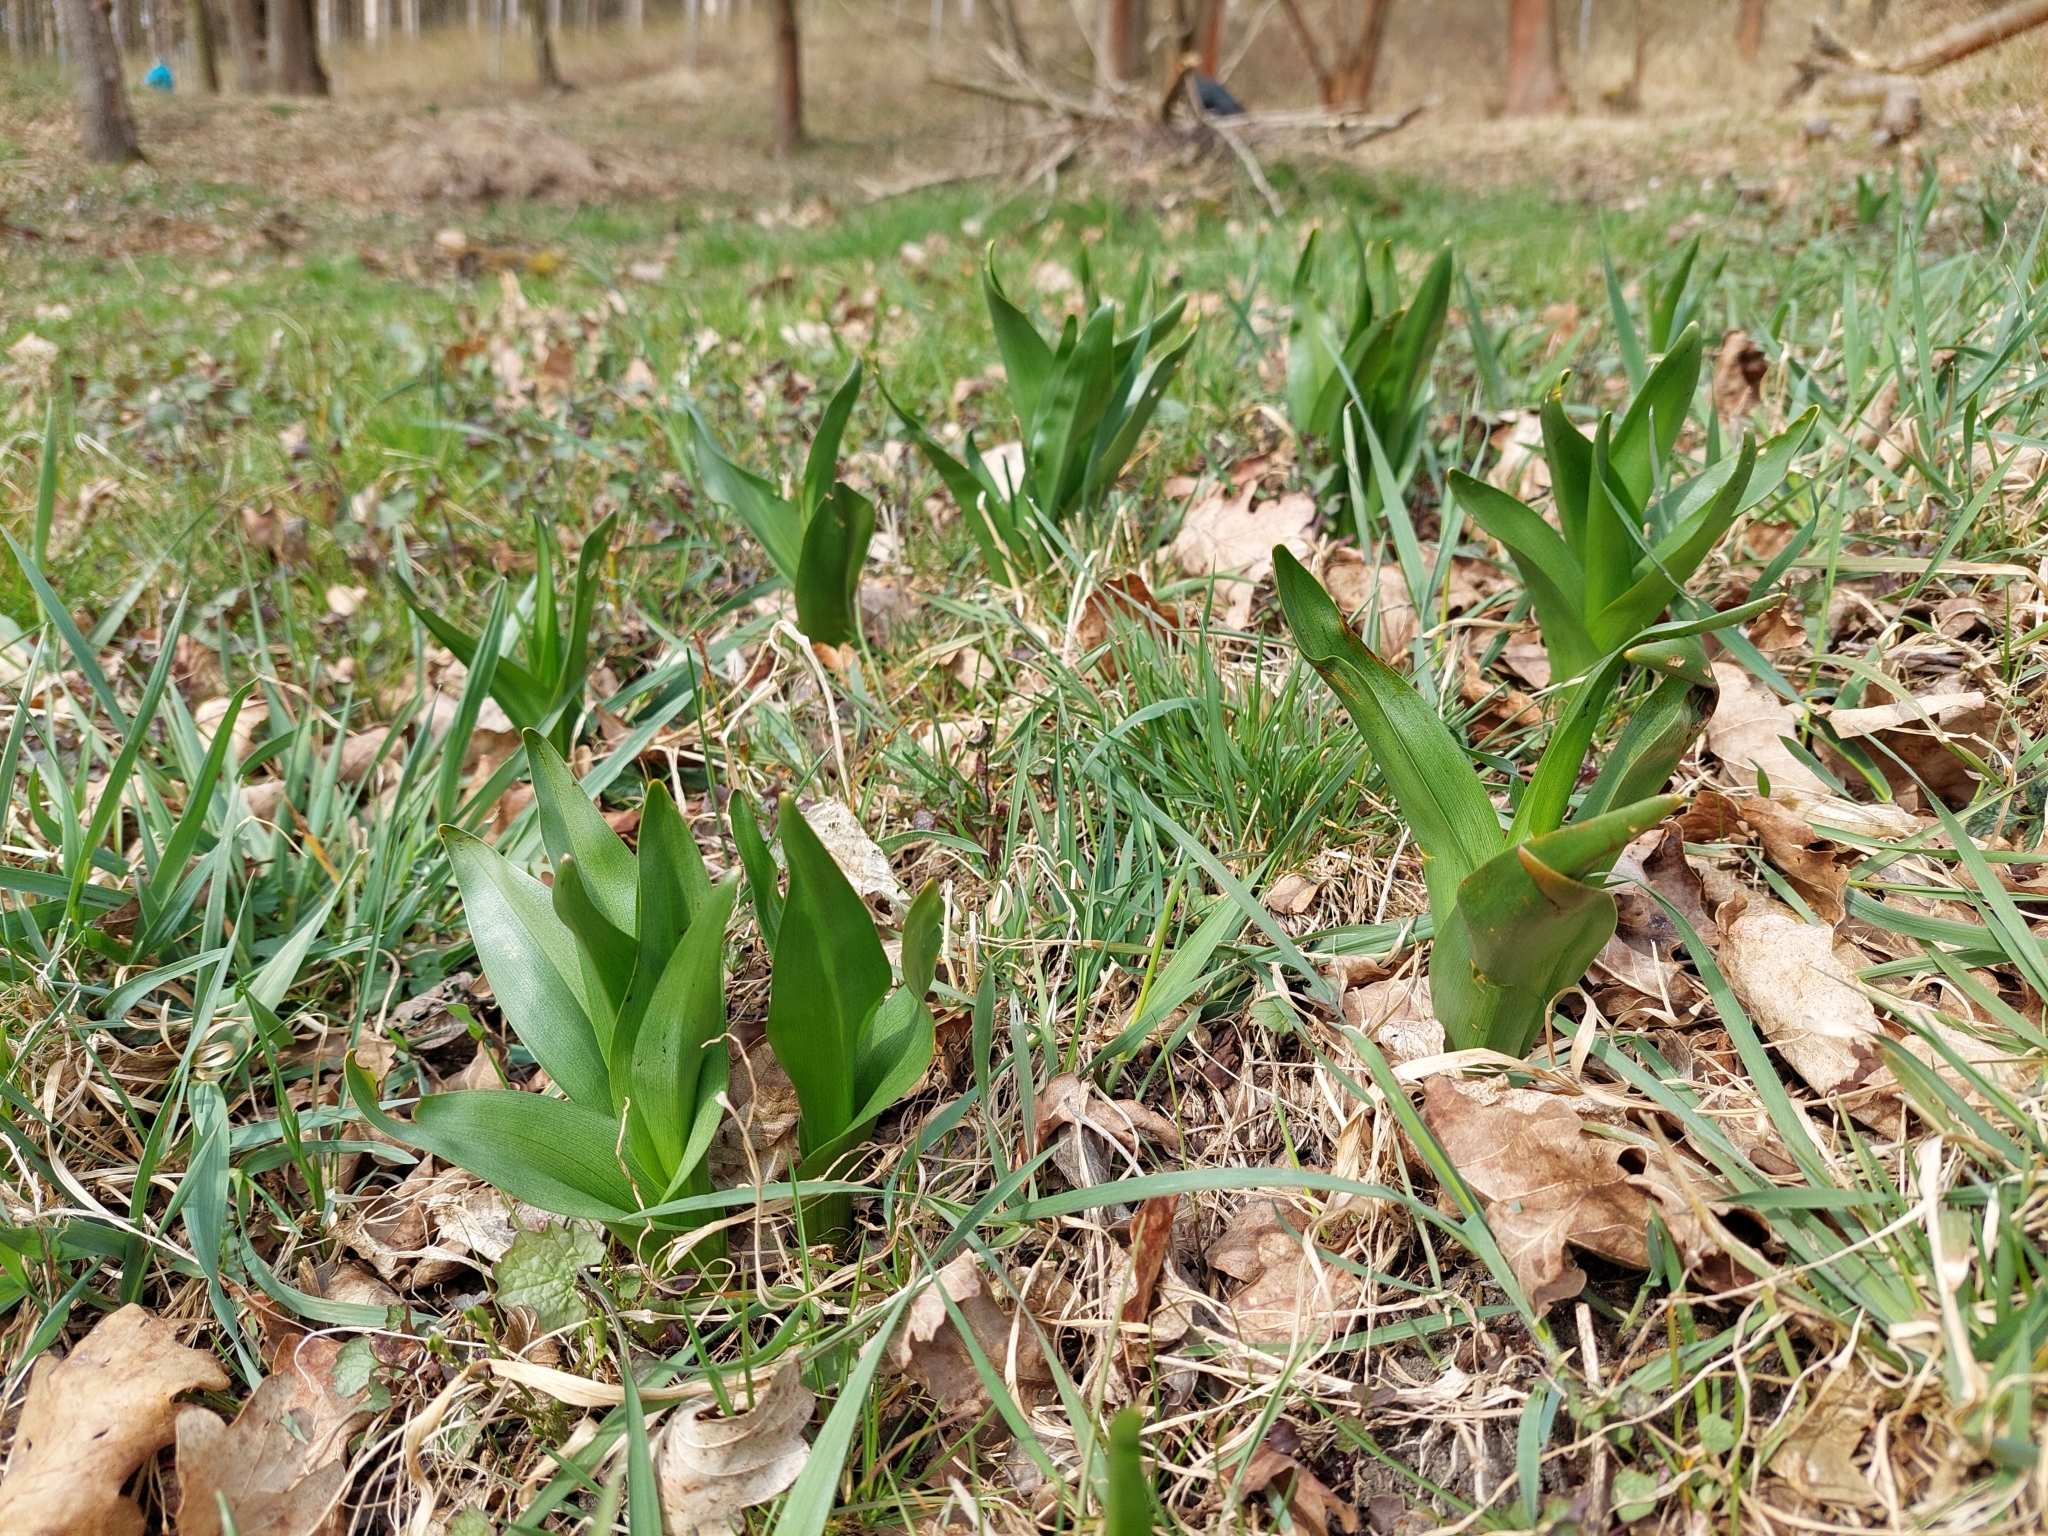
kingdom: Plantae
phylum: Tracheophyta
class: Liliopsida
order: Liliales
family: Colchicaceae
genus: Colchicum
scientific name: Colchicum autumnale
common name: Autumn crocus
